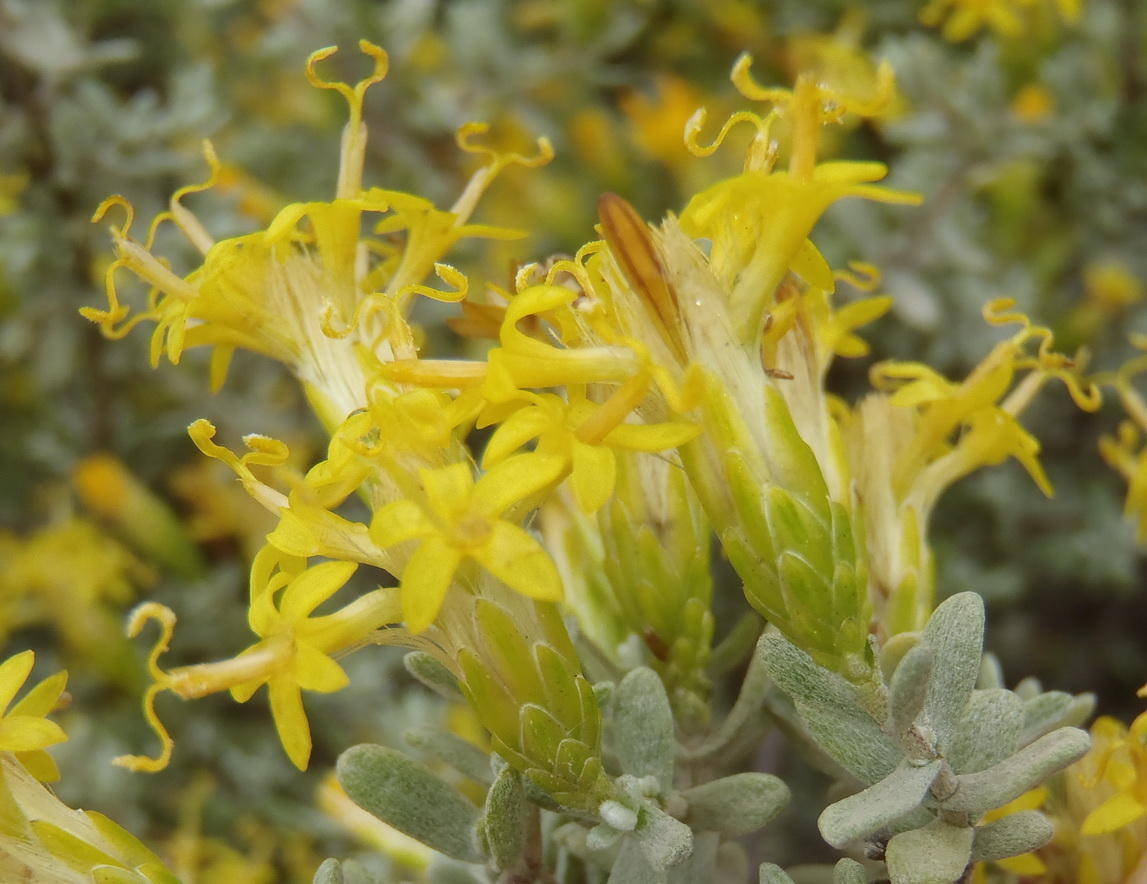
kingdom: Plantae
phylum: Tracheophyta
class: Magnoliopsida
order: Asterales
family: Asteraceae
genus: Pteronia
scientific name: Pteronia incana
